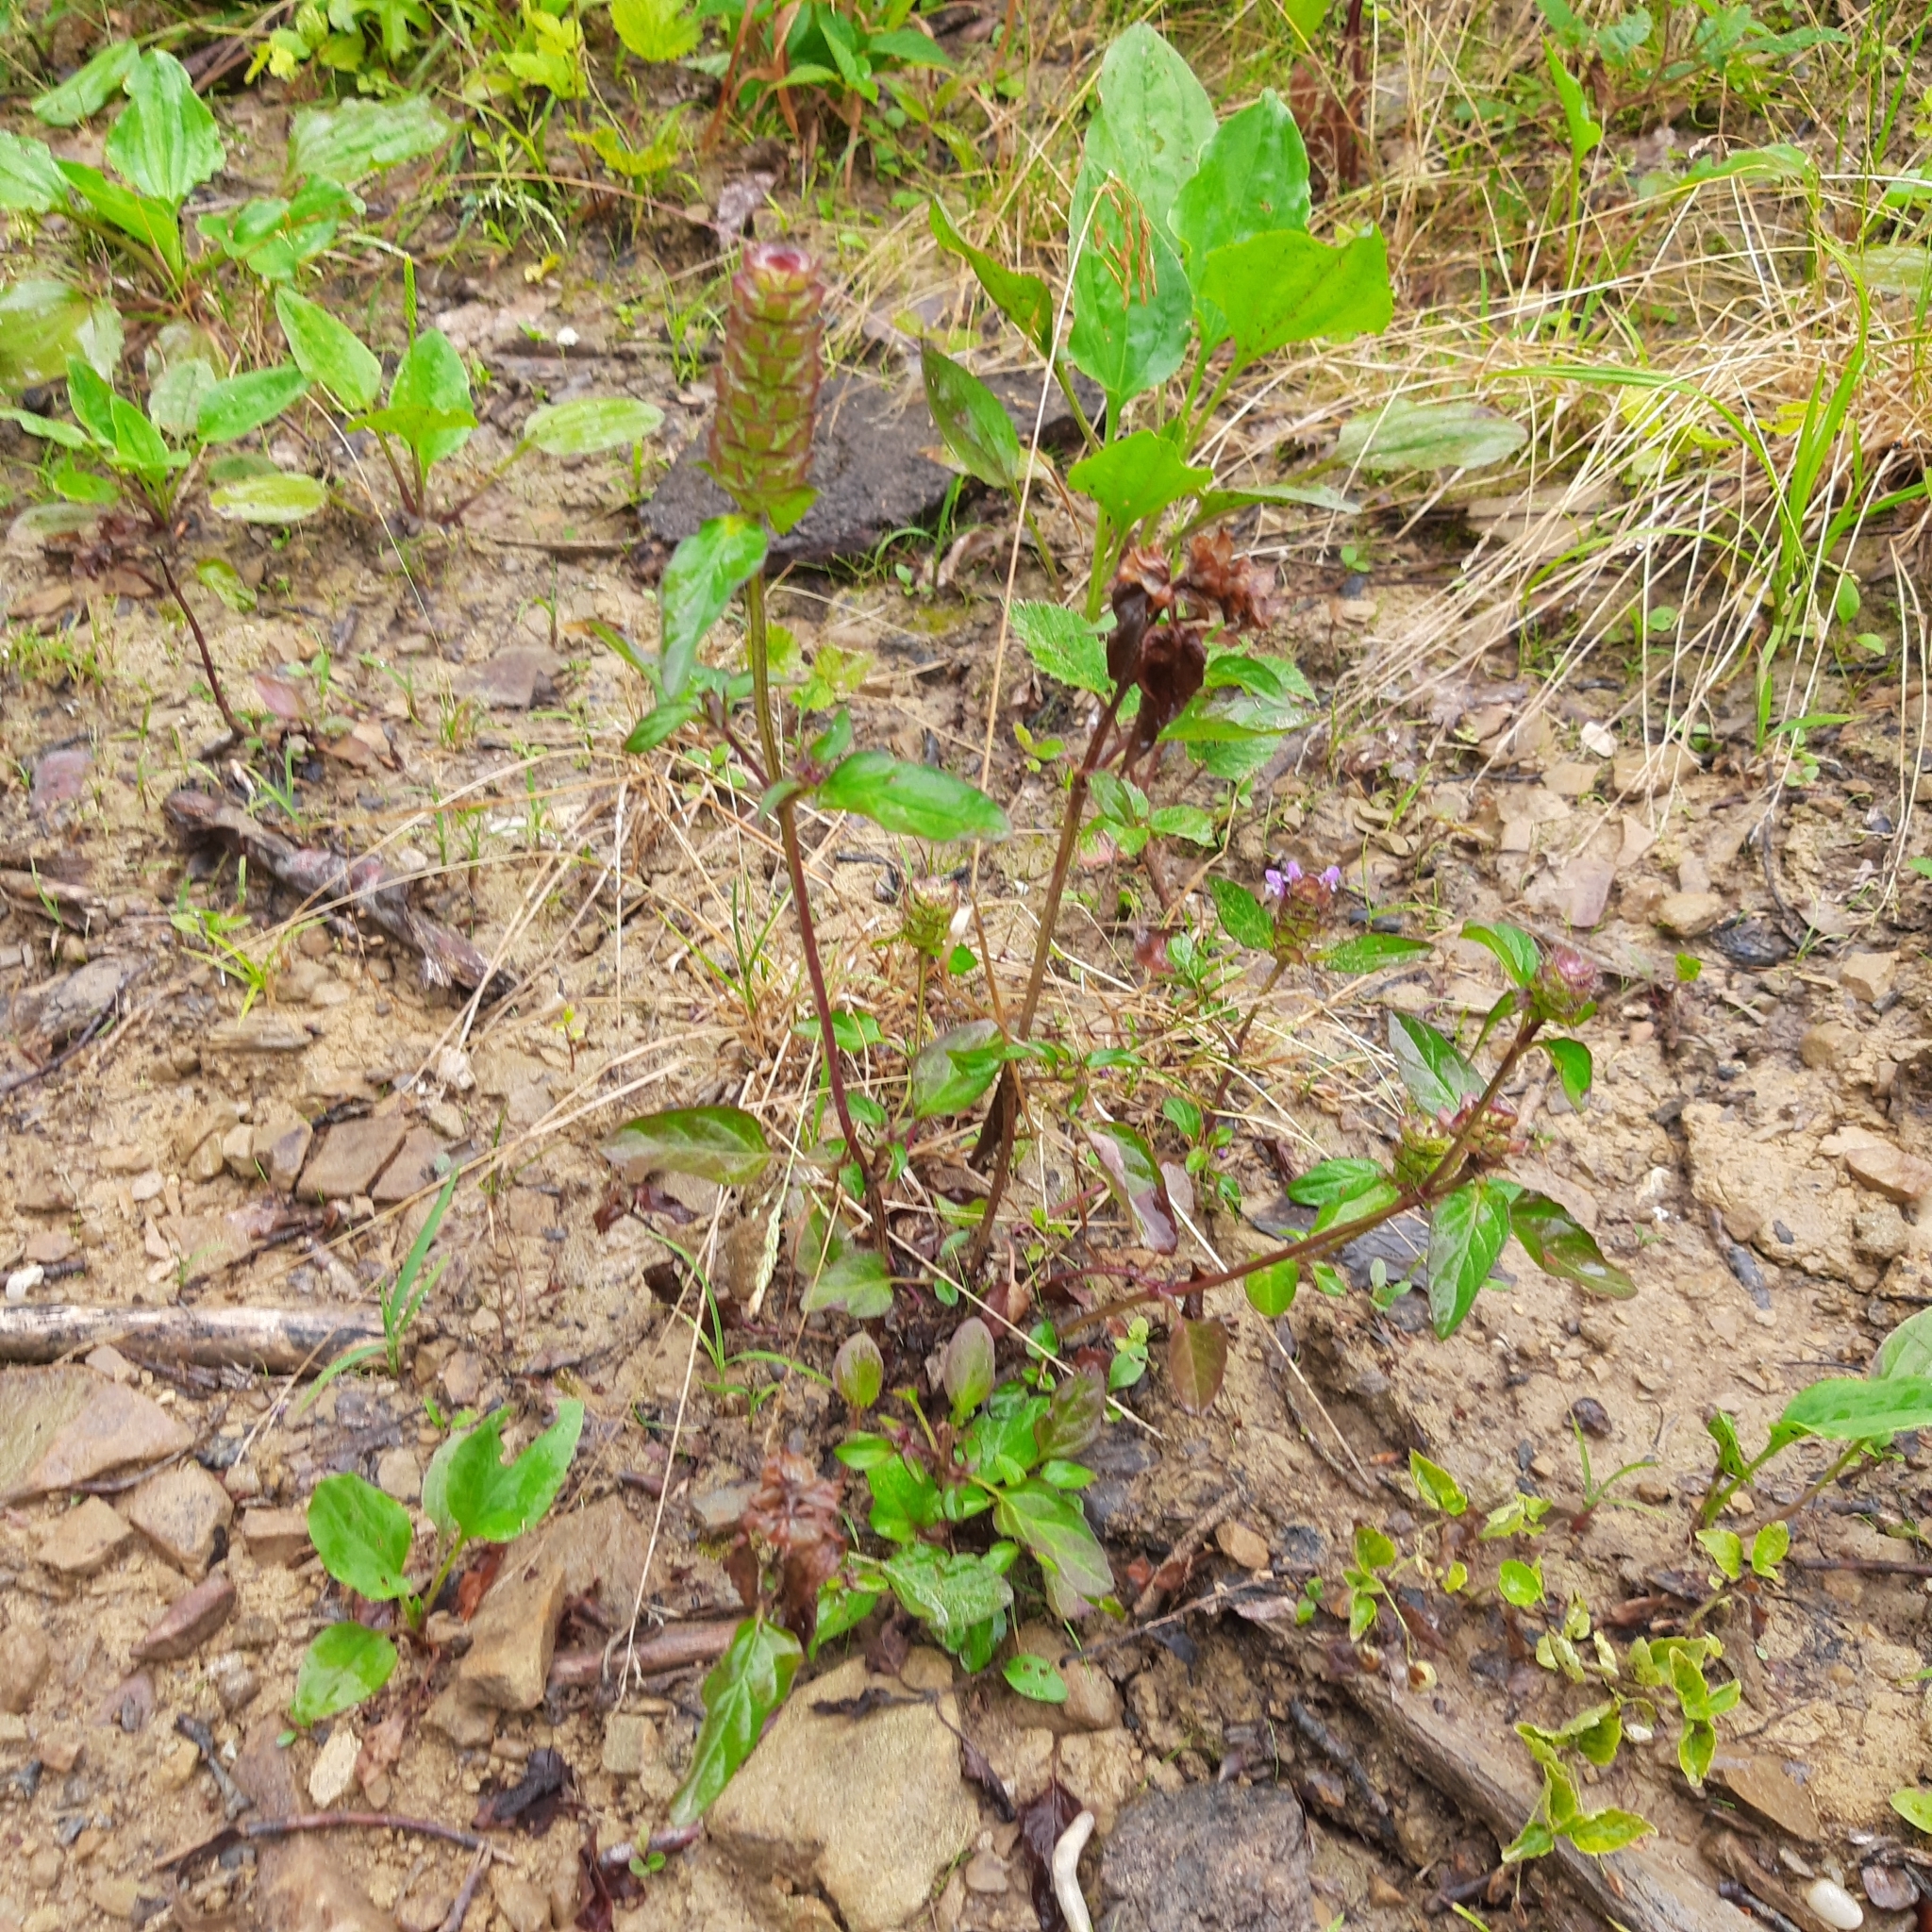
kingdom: Plantae
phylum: Tracheophyta
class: Magnoliopsida
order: Lamiales
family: Lamiaceae
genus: Prunella
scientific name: Prunella vulgaris
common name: Heal-all
